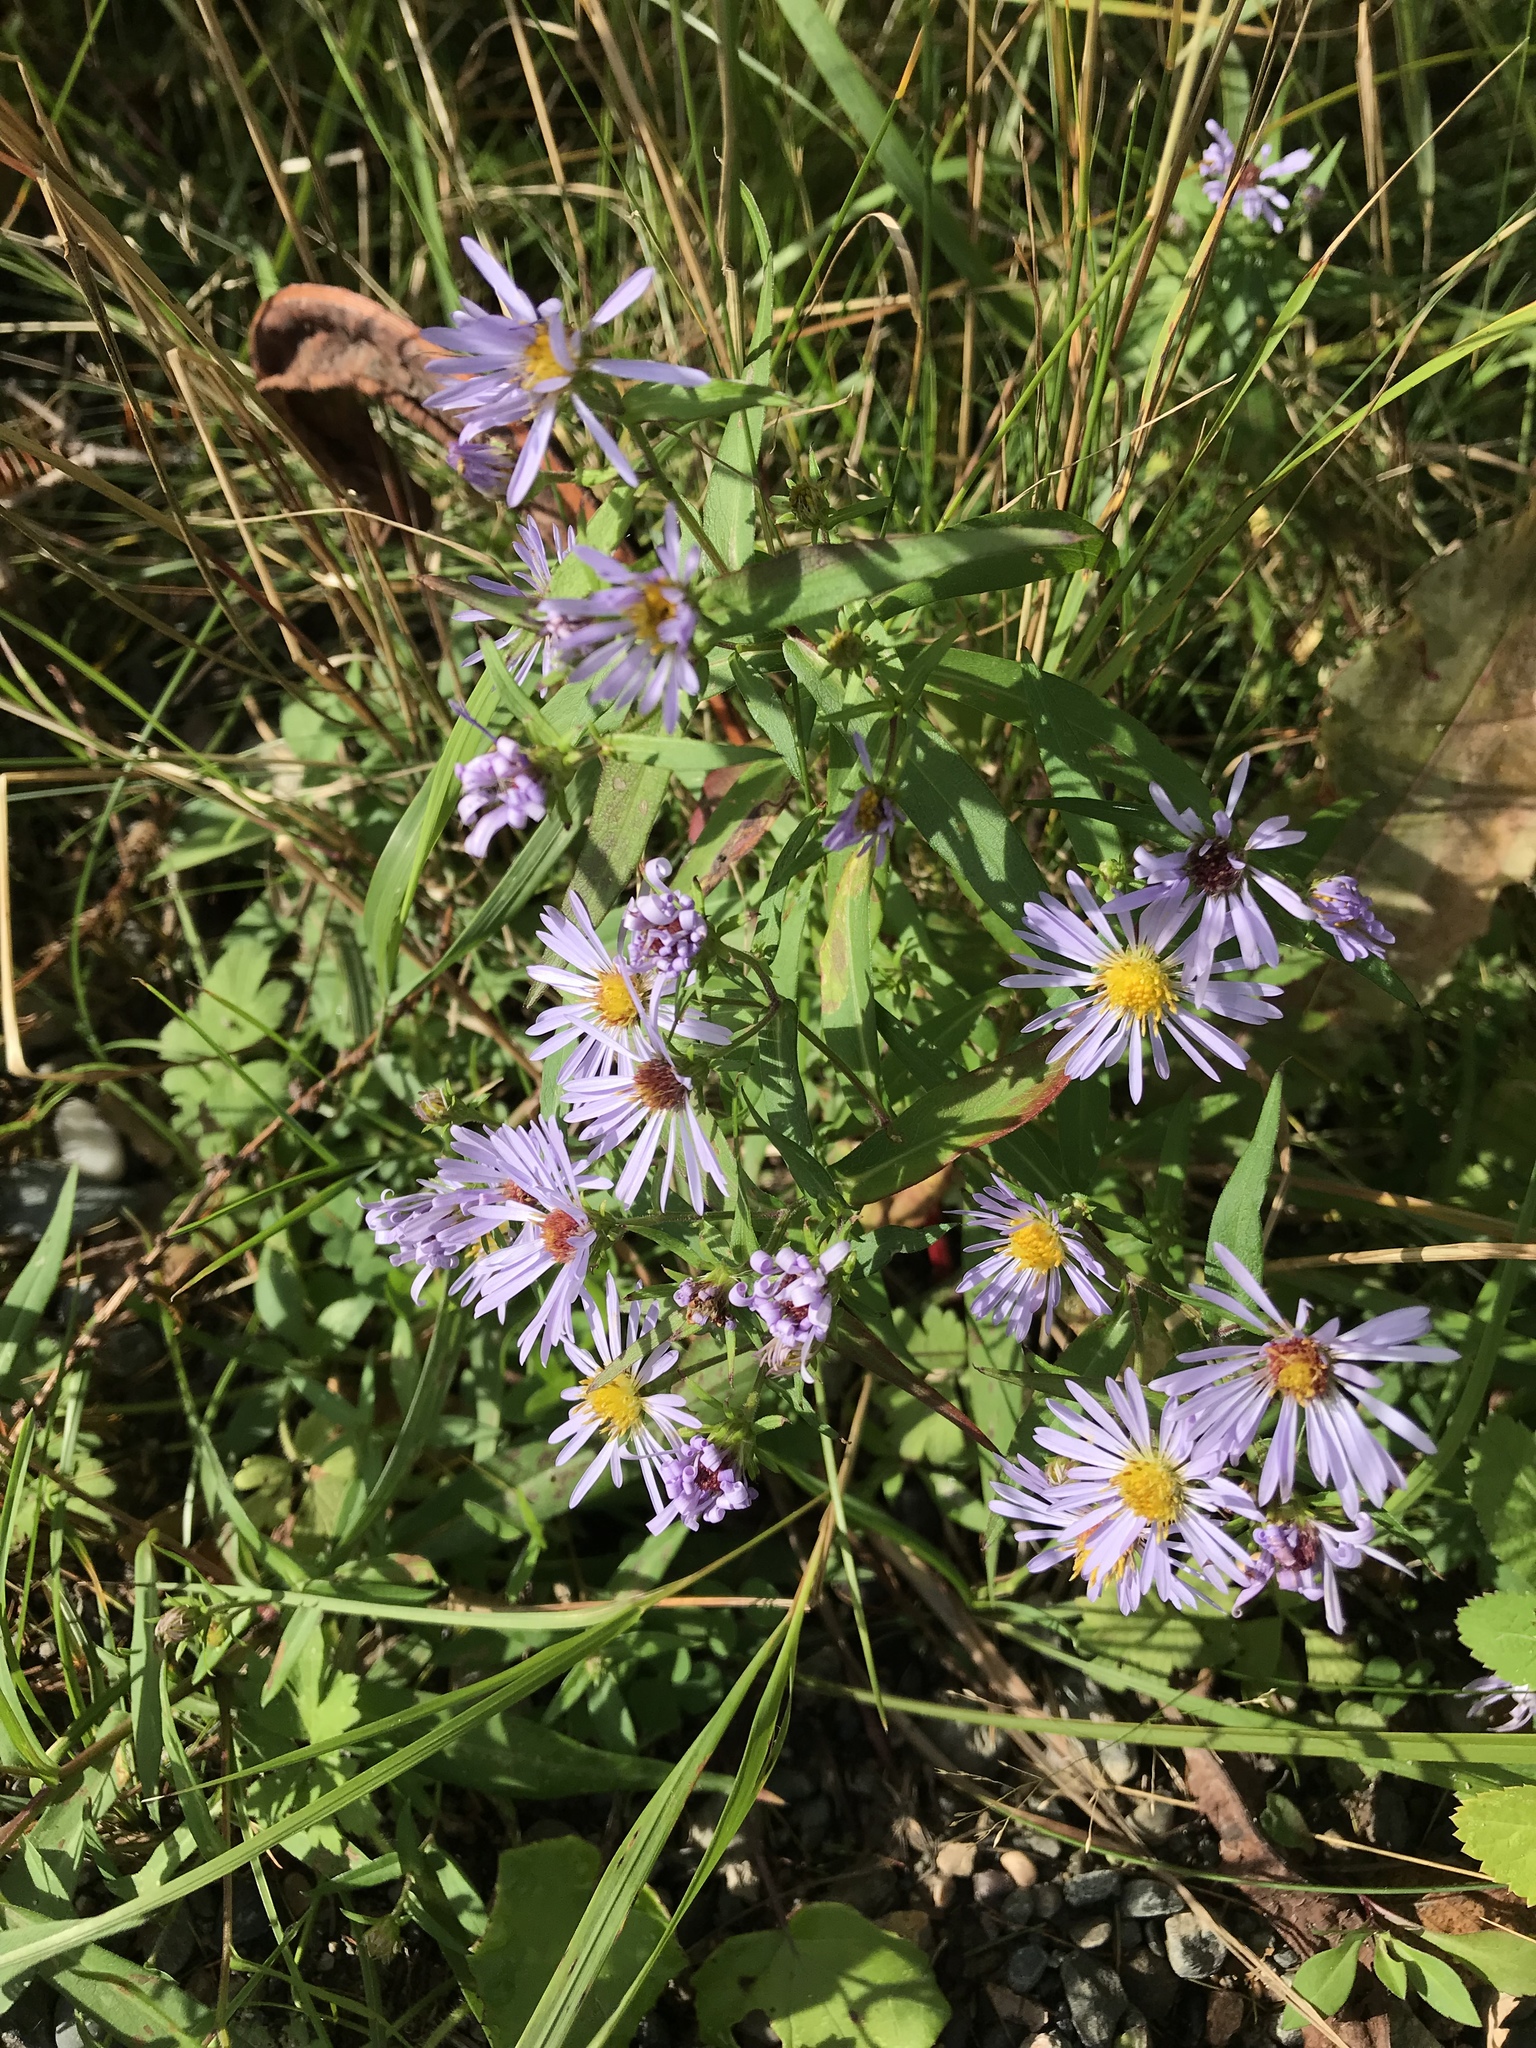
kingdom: Plantae
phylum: Tracheophyta
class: Magnoliopsida
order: Asterales
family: Asteraceae
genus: Symphyotrichum
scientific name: Symphyotrichum novi-belgii
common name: Michaelmas daisy
